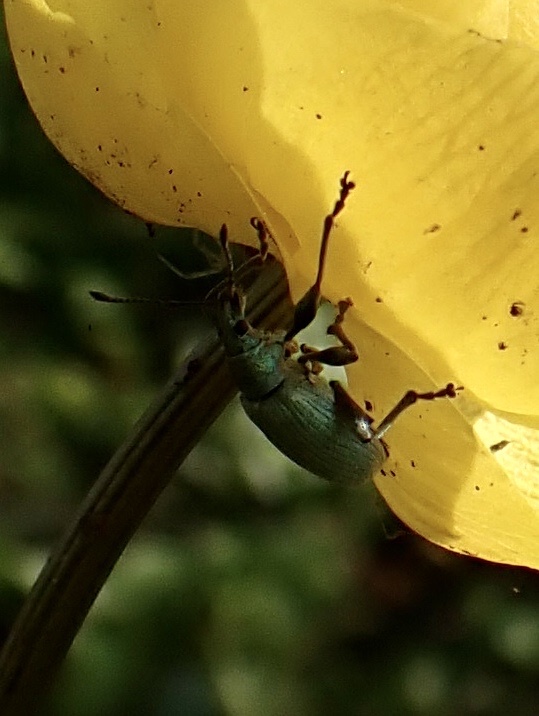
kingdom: Animalia
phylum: Arthropoda
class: Insecta
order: Coleoptera
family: Curculionidae
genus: Phyllobius
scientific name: Phyllobius pomaceus
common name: Green nettle weevil
